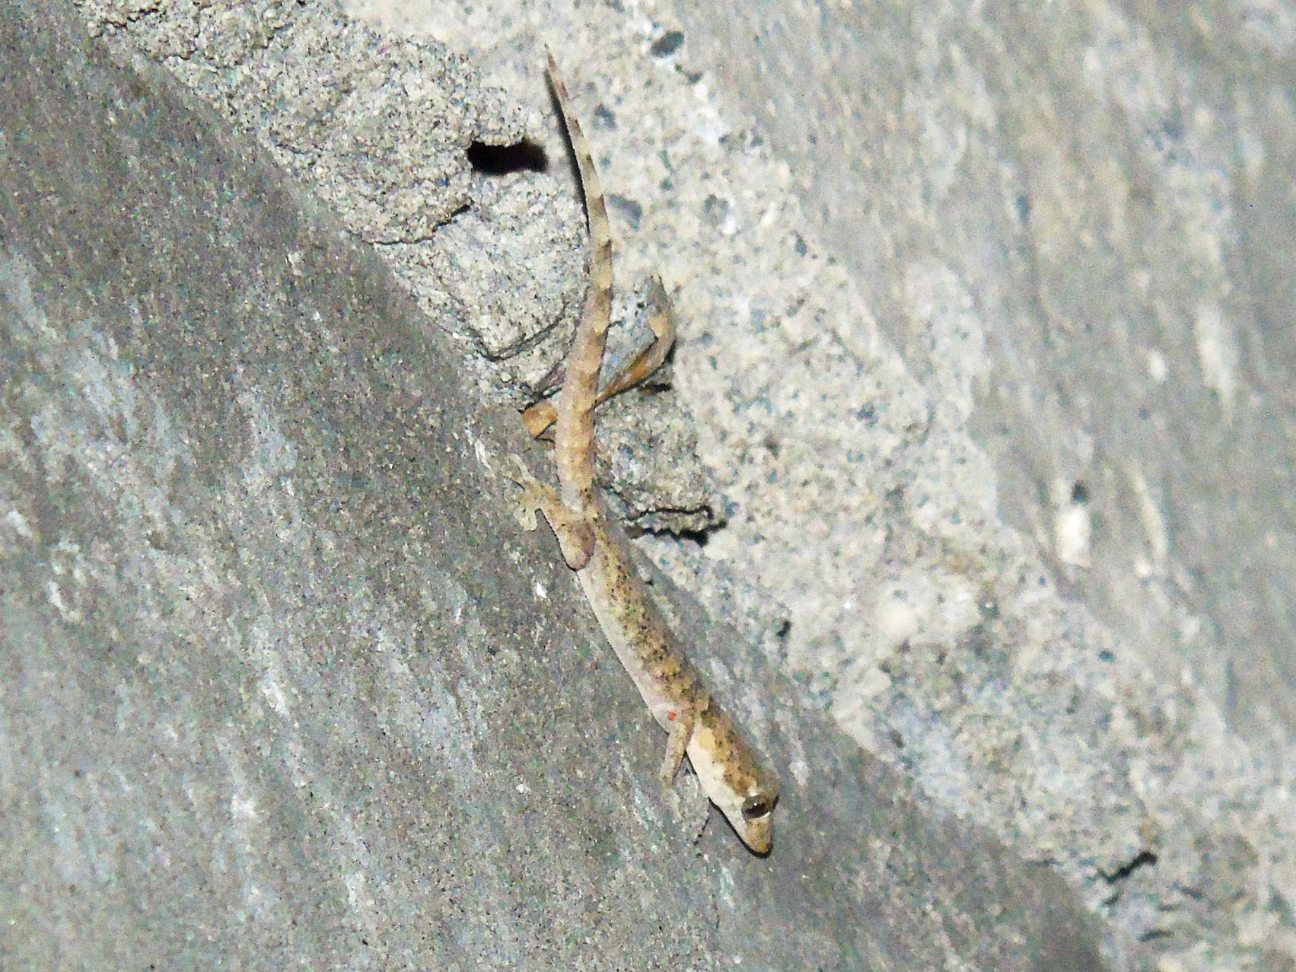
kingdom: Animalia
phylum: Chordata
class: Squamata
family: Gekkonidae
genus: Altiphylax
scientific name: Altiphylax stoliczkai
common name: Frontier bow-fingered gecko
